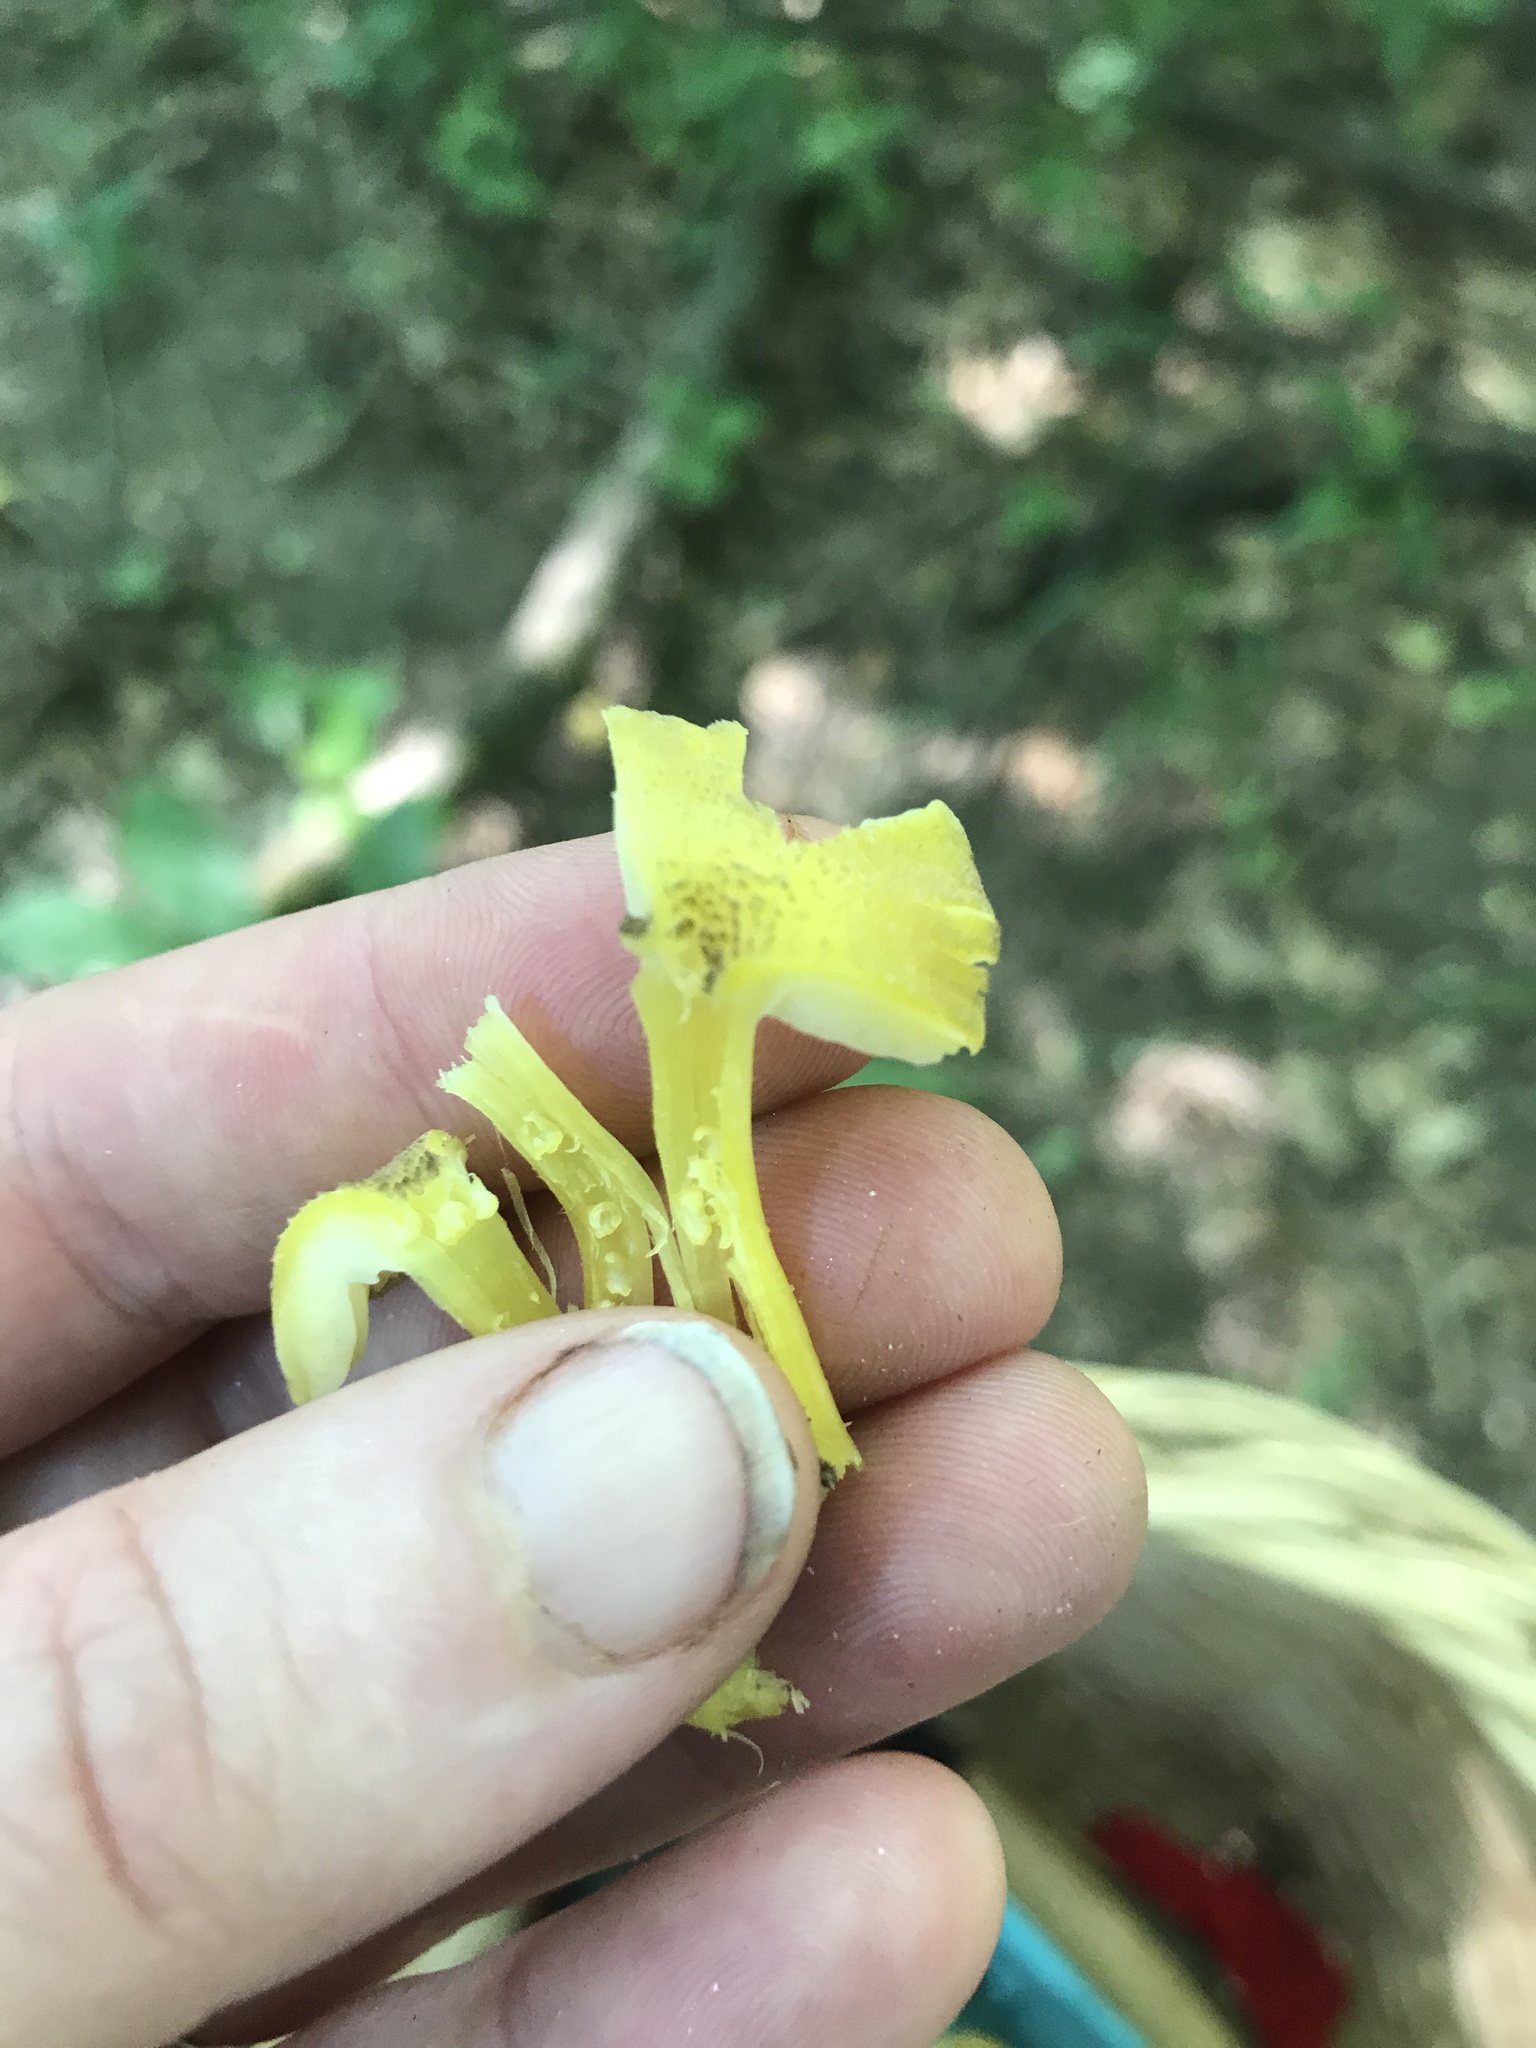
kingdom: Fungi
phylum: Basidiomycota
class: Agaricomycetes
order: Agaricales
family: Hygrophoraceae
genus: Hygrocybe
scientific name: Hygrocybe caespitosa
